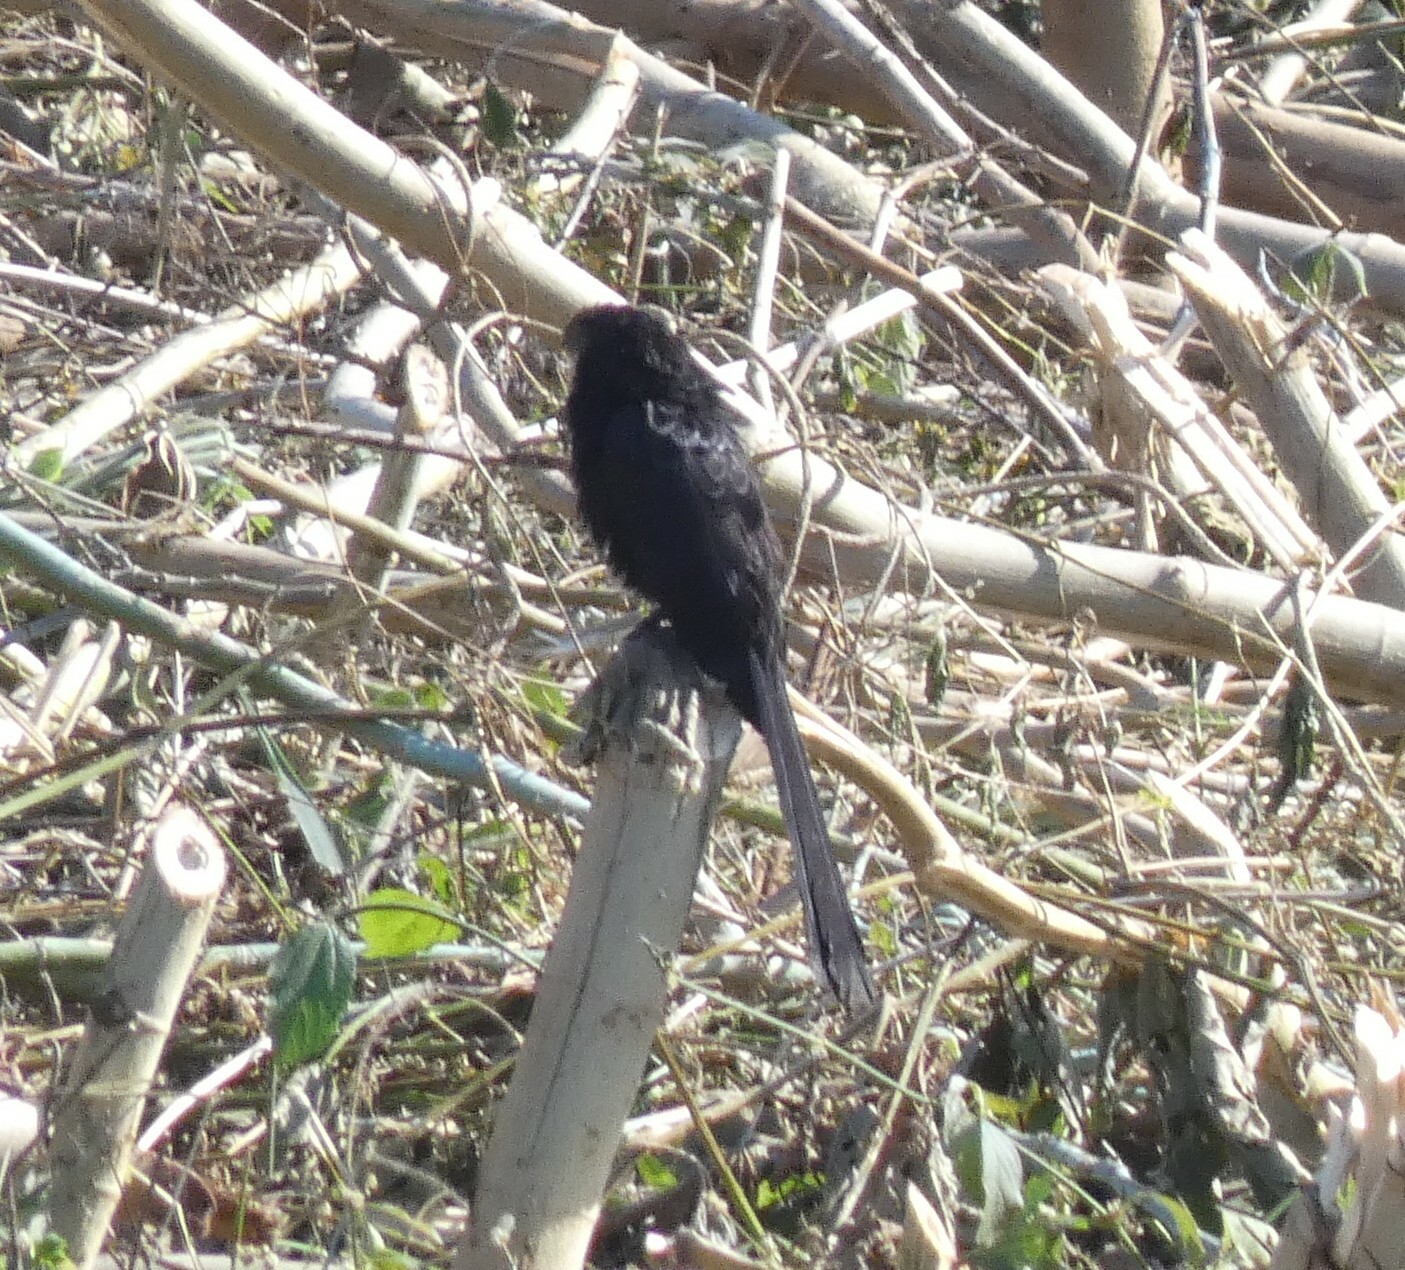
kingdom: Animalia
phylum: Chordata
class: Aves
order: Cuculiformes
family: Cuculidae
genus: Crotophaga
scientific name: Crotophaga ani
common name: Smooth-billed ani
